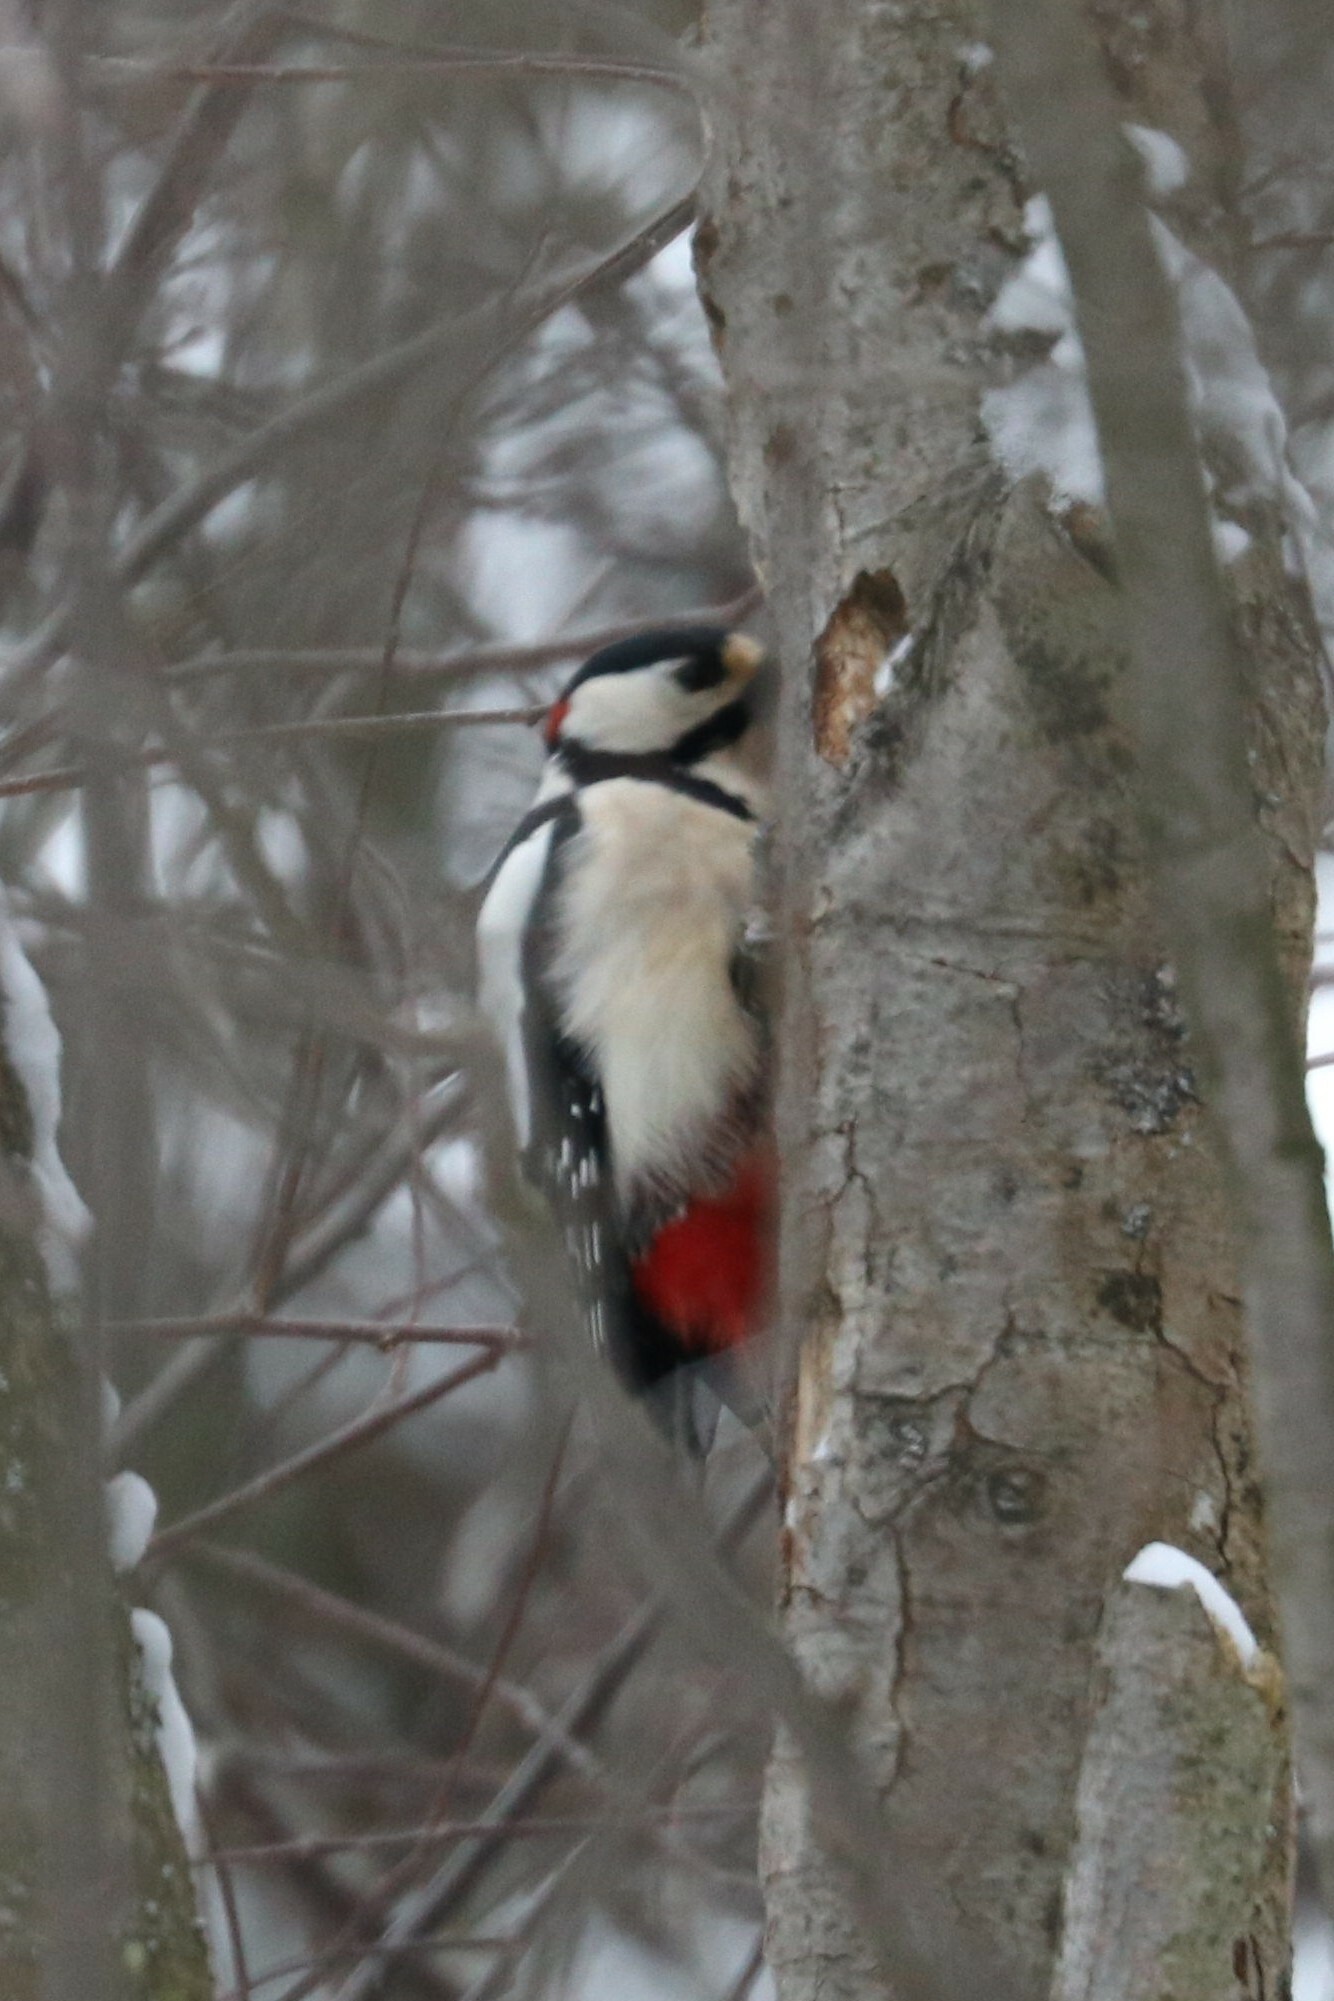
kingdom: Animalia
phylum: Chordata
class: Aves
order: Piciformes
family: Picidae
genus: Dendrocopos
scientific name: Dendrocopos major
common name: Great spotted woodpecker
